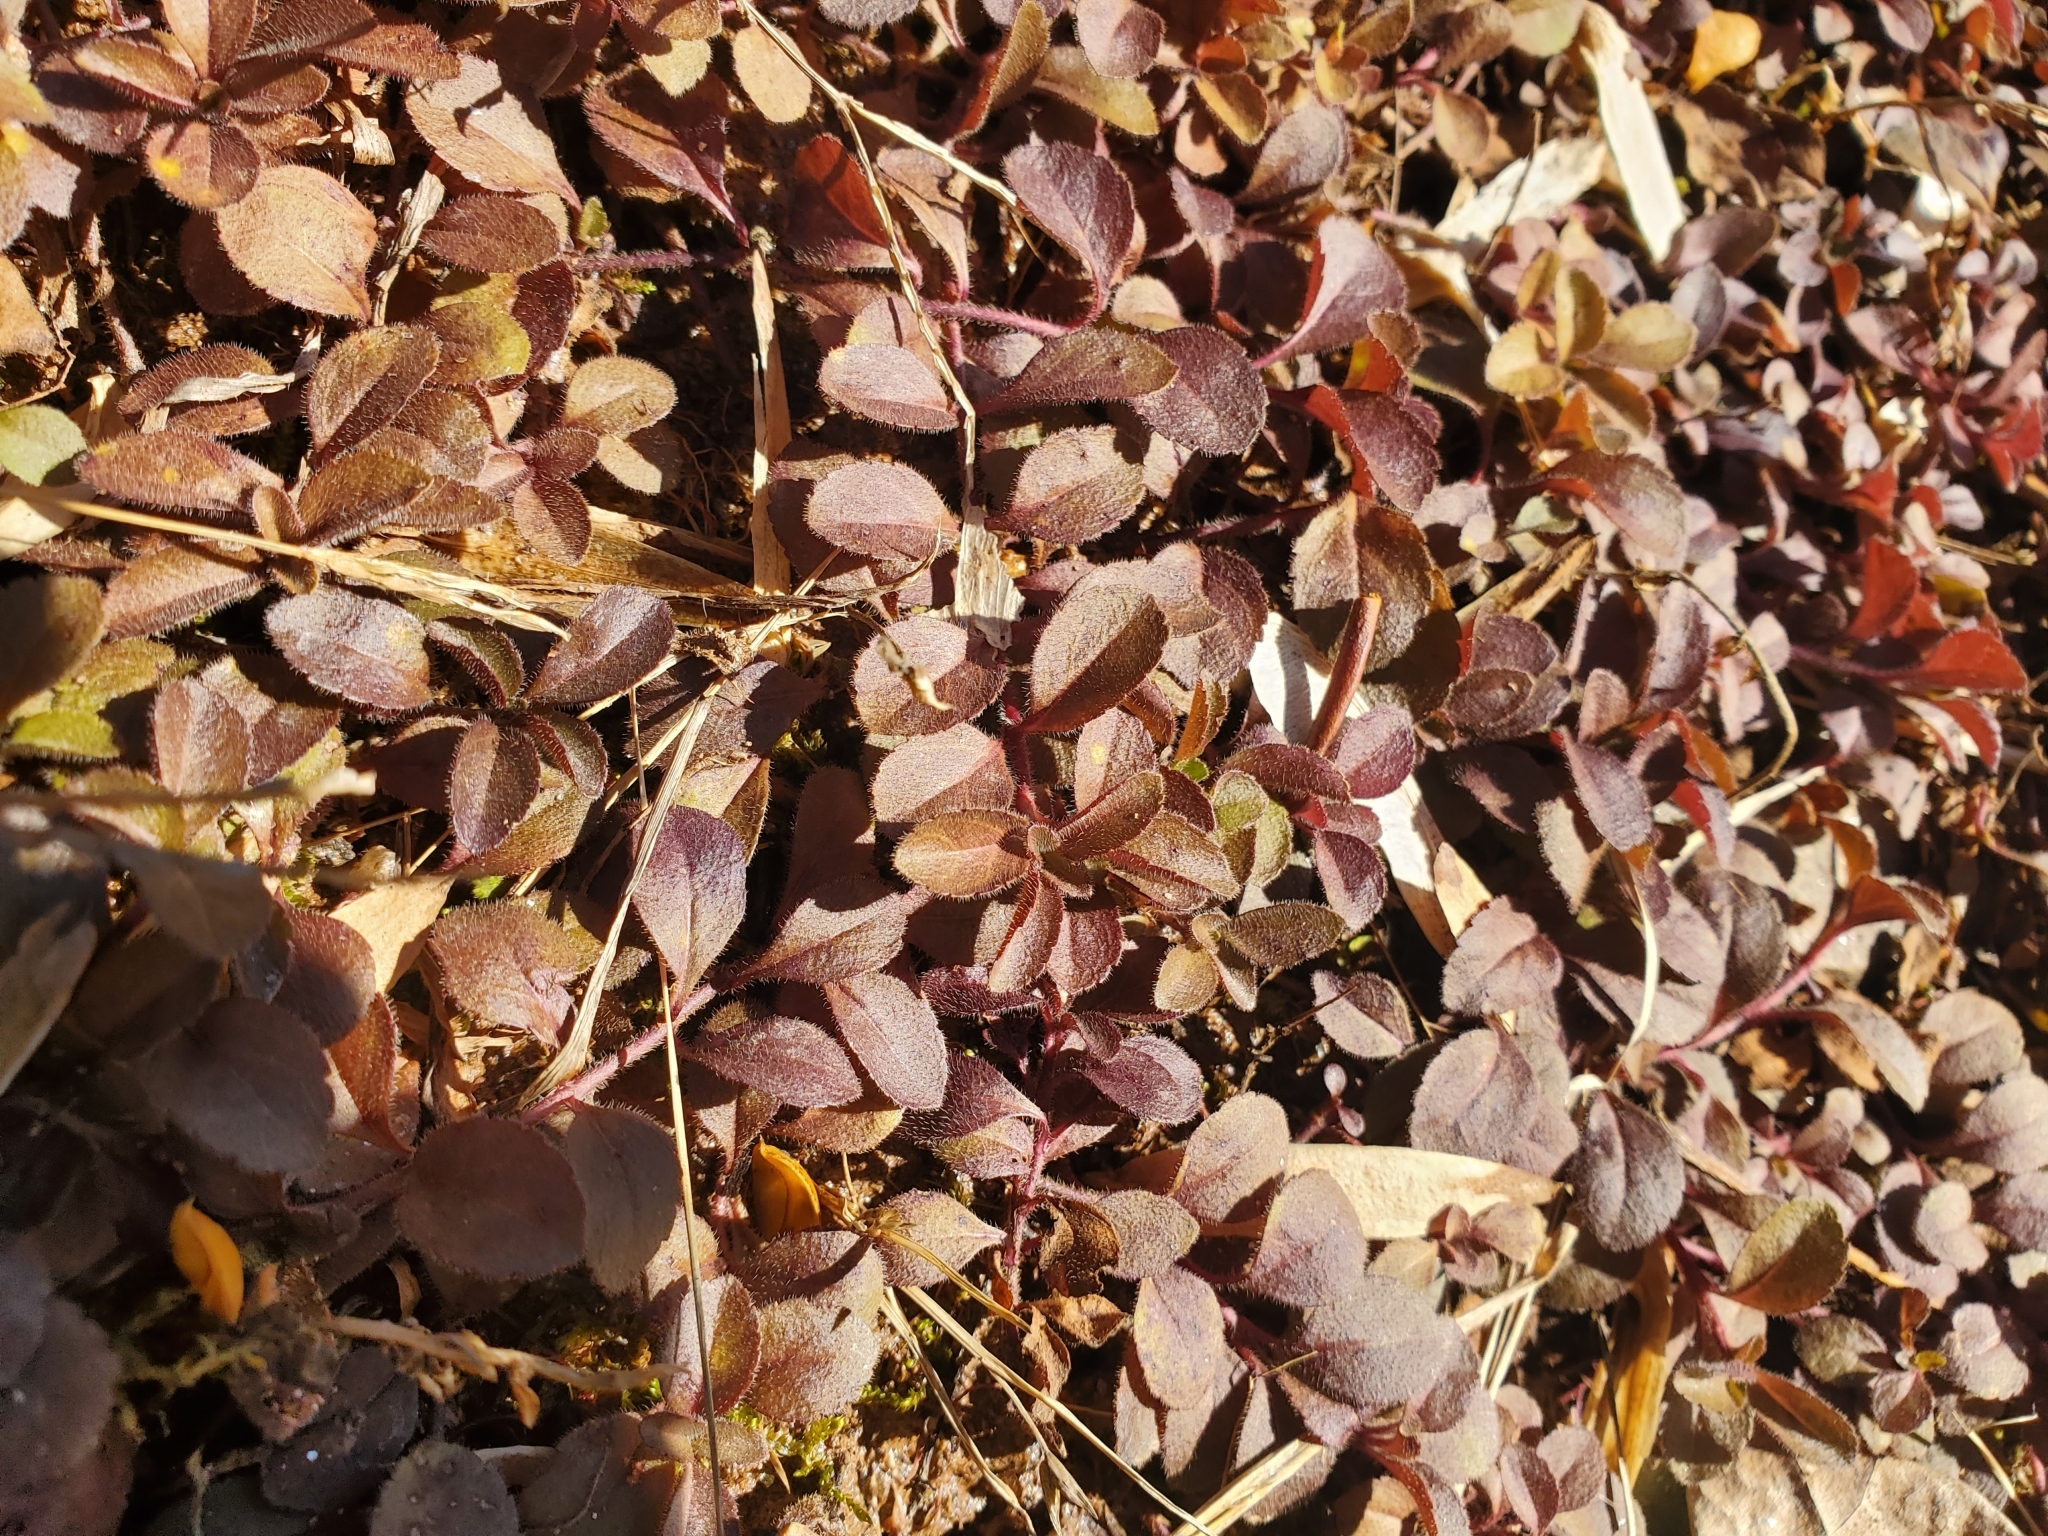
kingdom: Plantae
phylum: Tracheophyta
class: Magnoliopsida
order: Lamiales
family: Plantaginaceae
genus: Veronica
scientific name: Veronica officinalis
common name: Common speedwell
